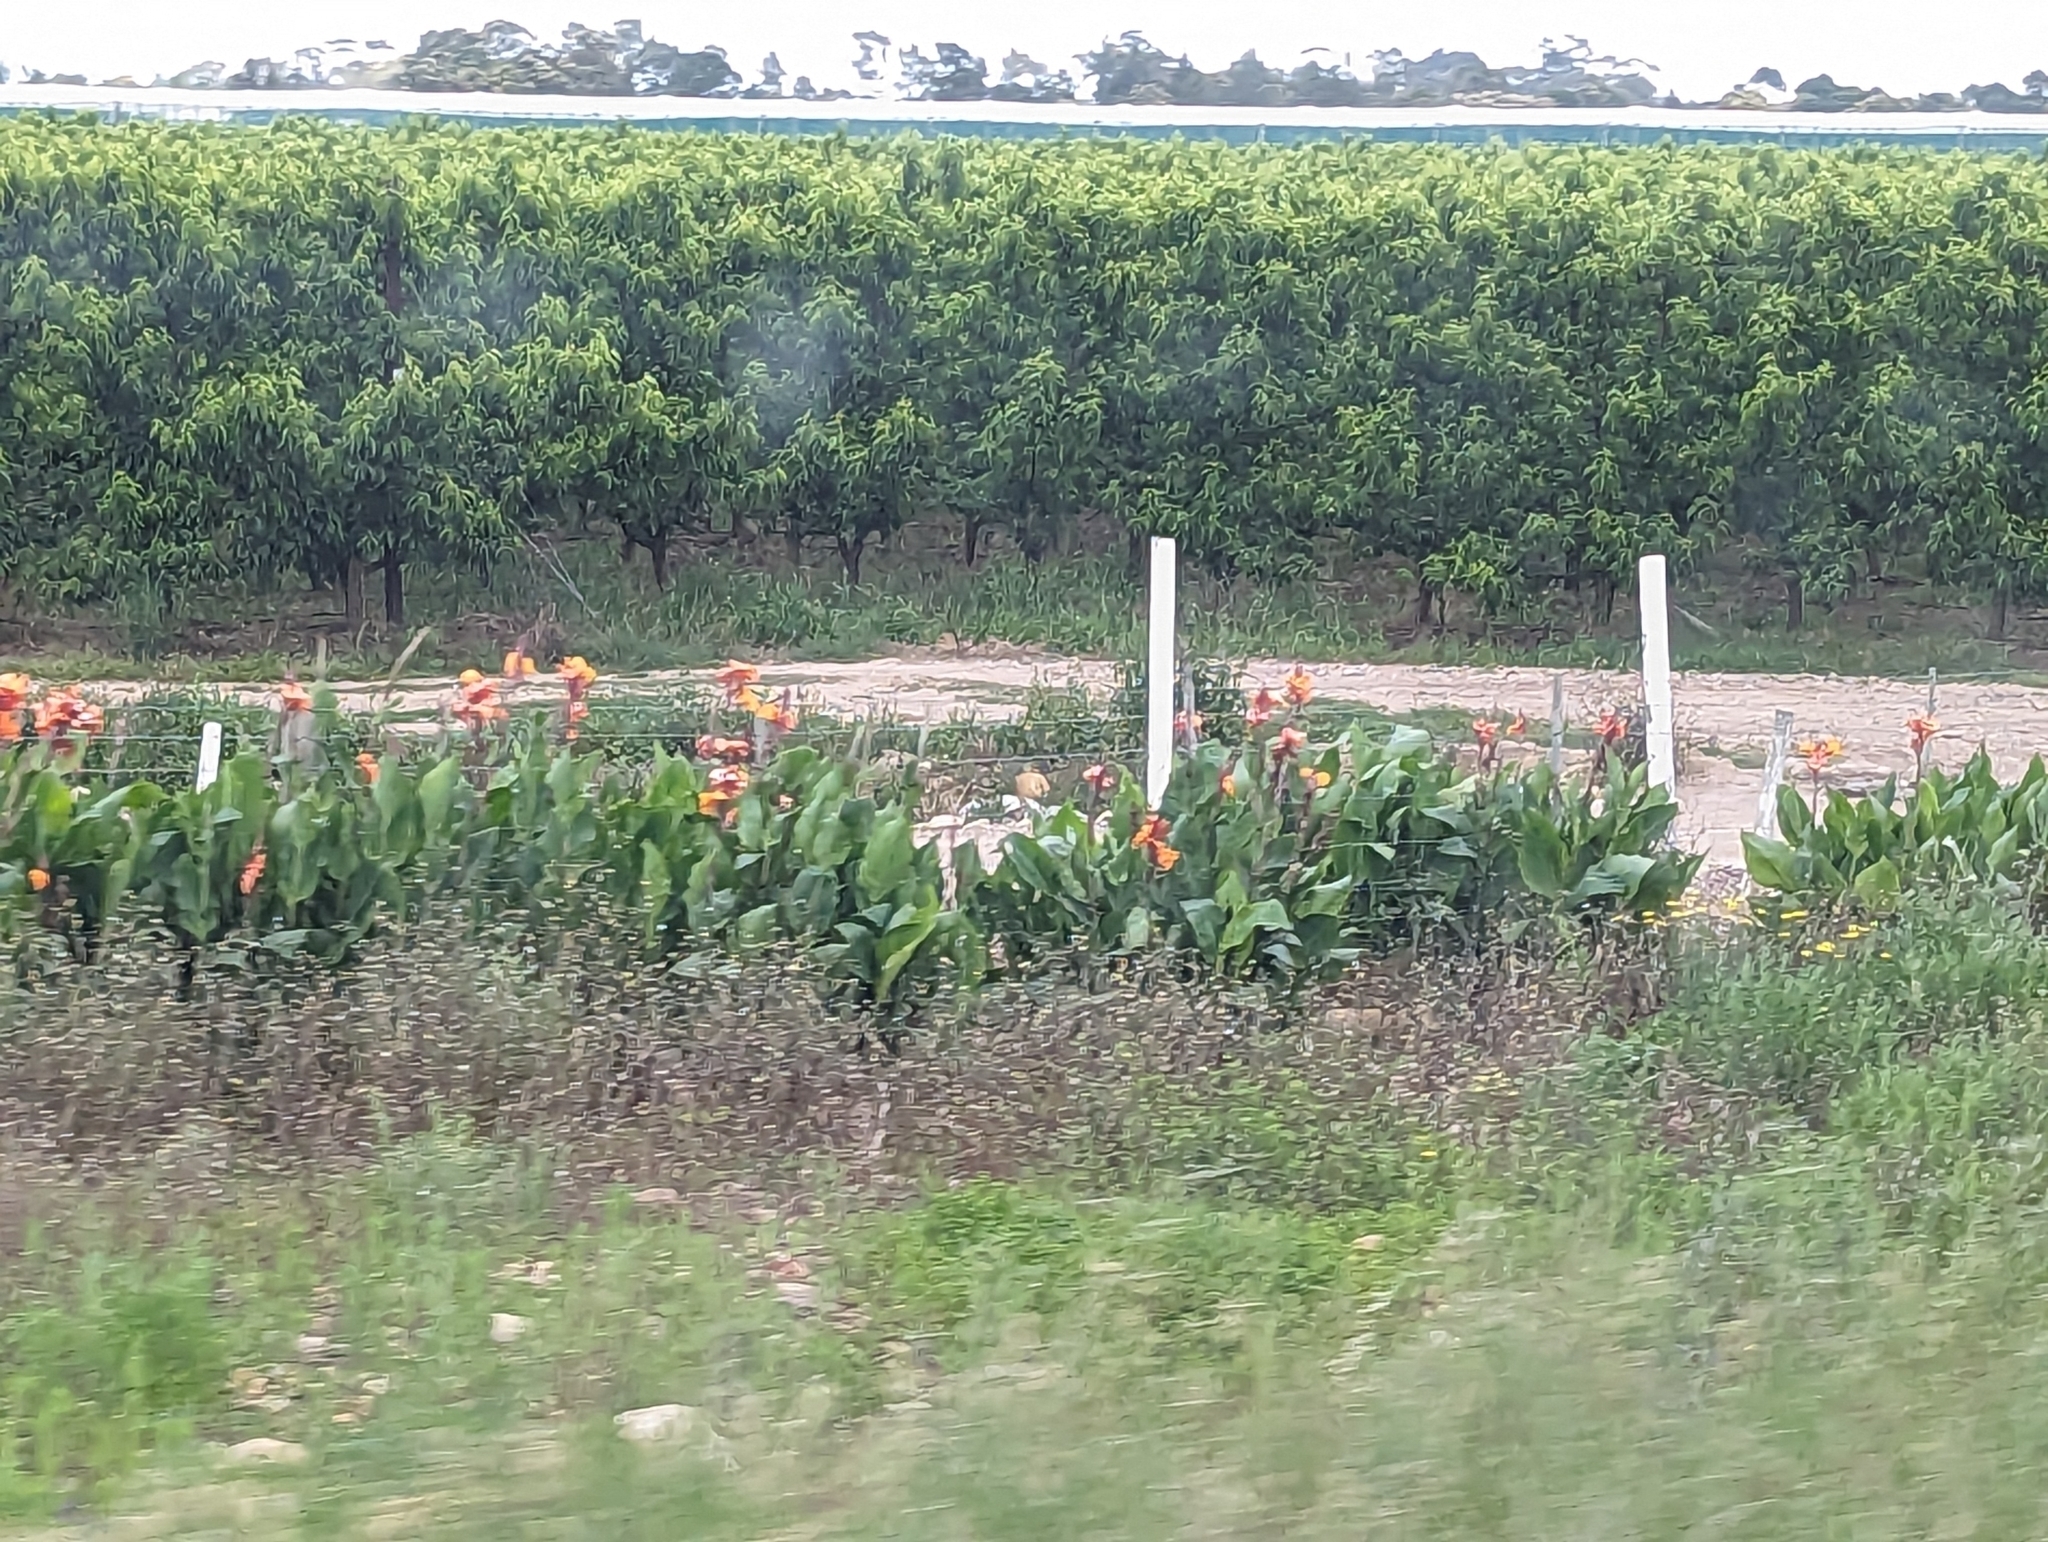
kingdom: Plantae
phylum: Tracheophyta
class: Liliopsida
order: Zingiberales
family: Cannaceae
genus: Canna
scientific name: Canna hybrida
